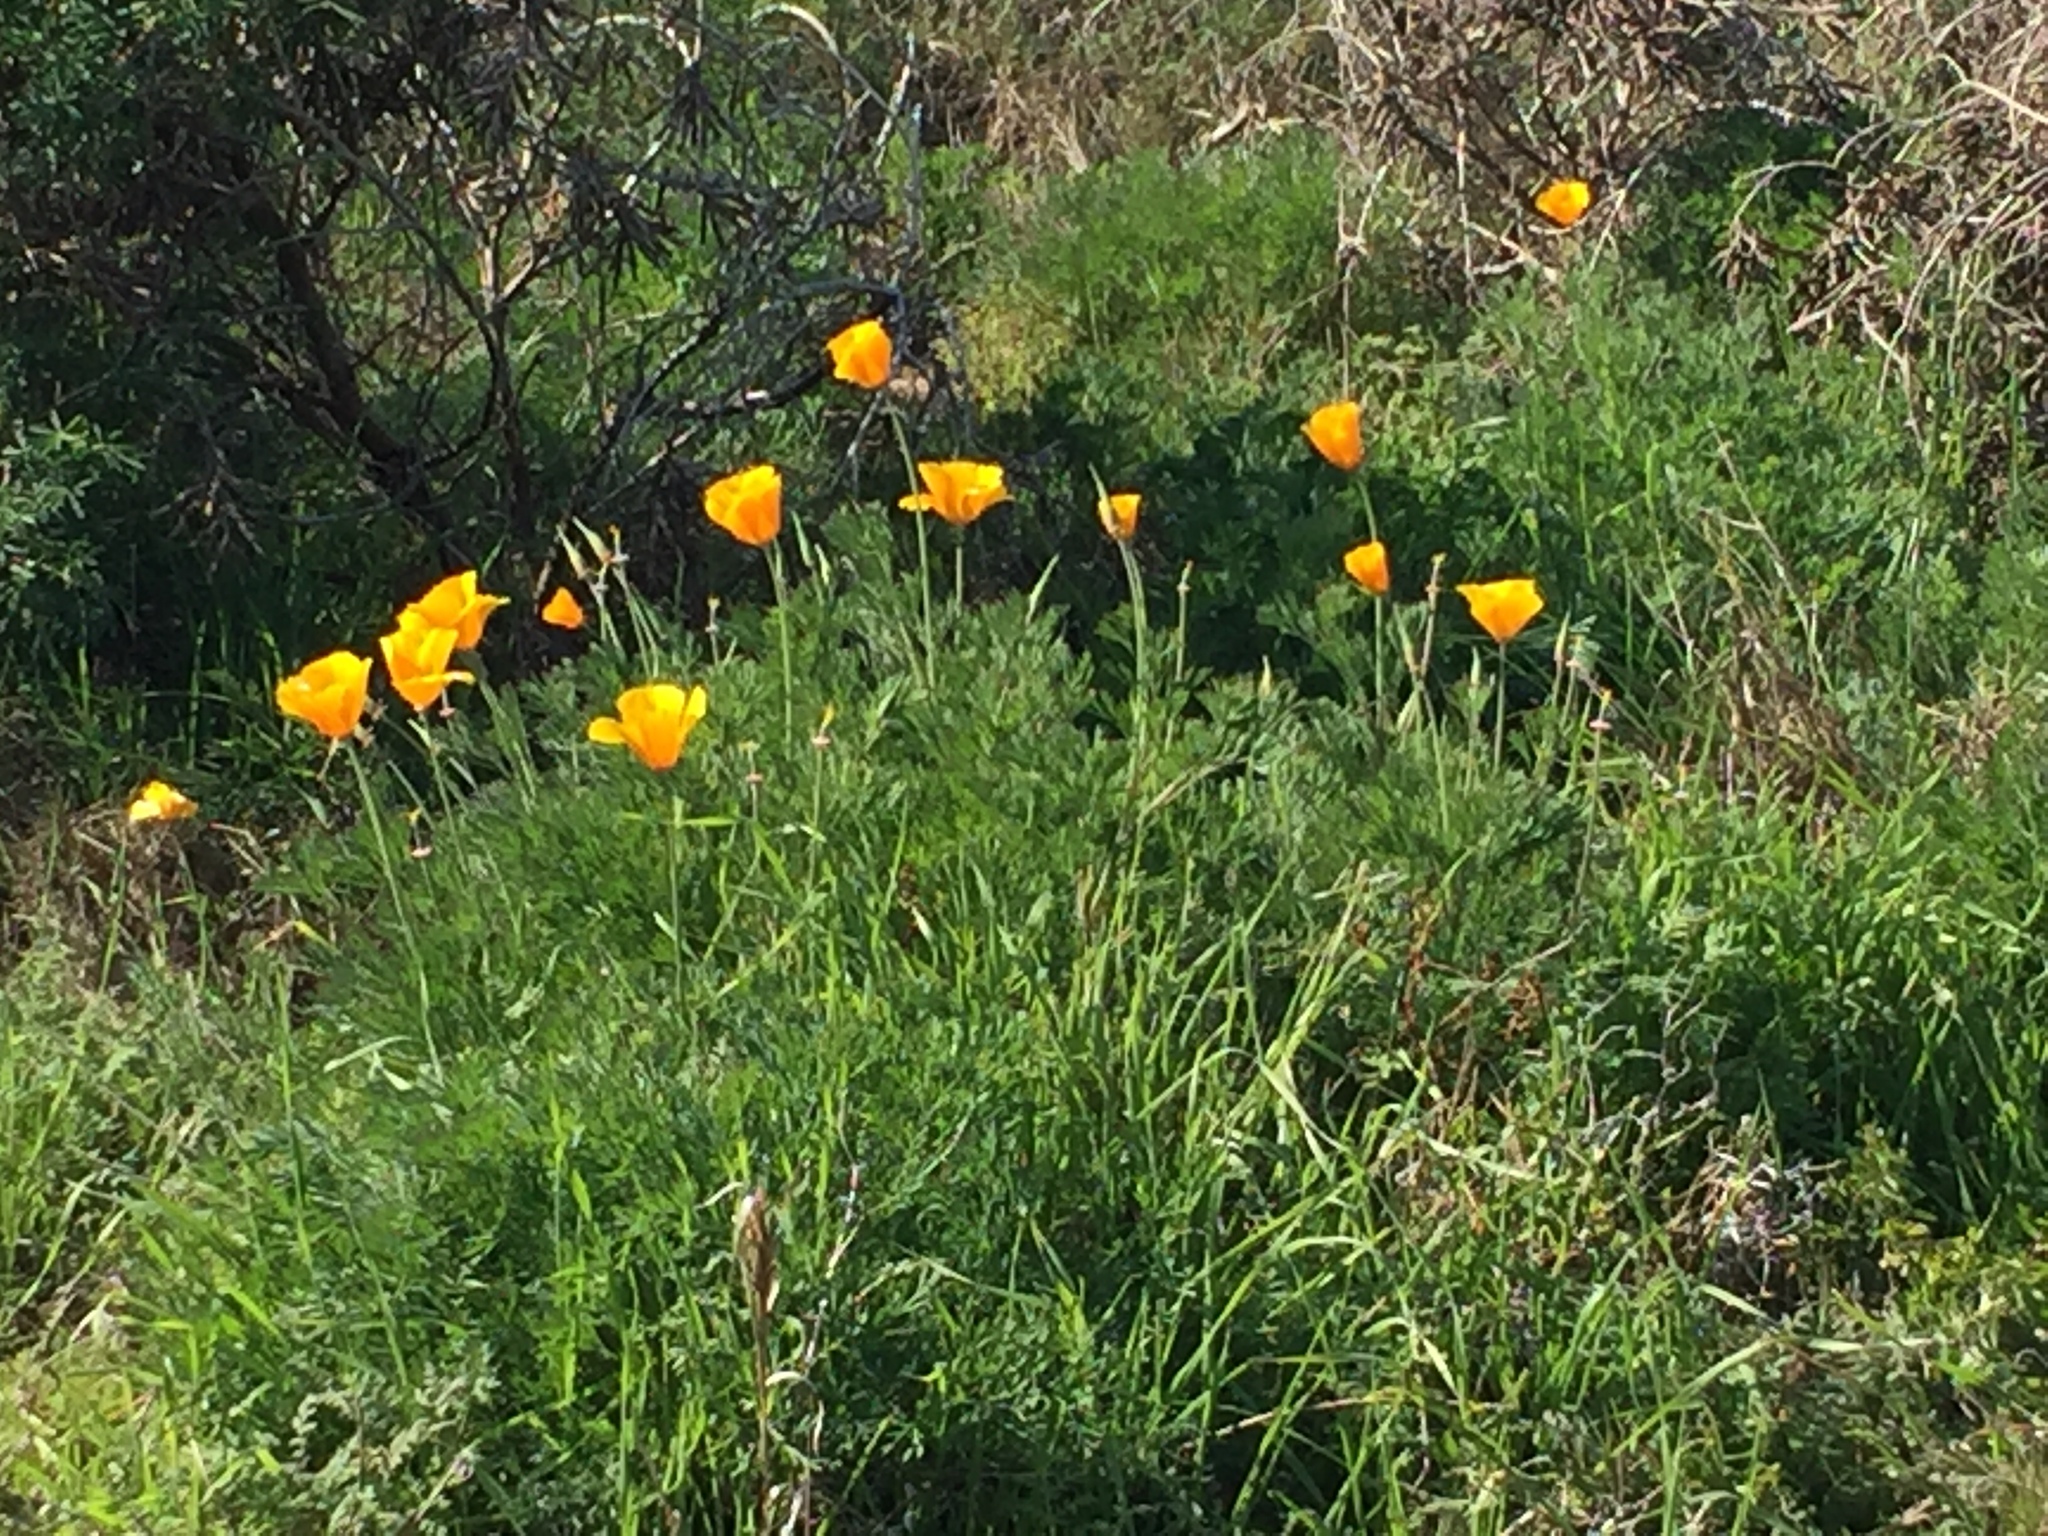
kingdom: Plantae
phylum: Tracheophyta
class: Magnoliopsida
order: Ranunculales
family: Papaveraceae
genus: Eschscholzia
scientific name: Eschscholzia californica
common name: California poppy
